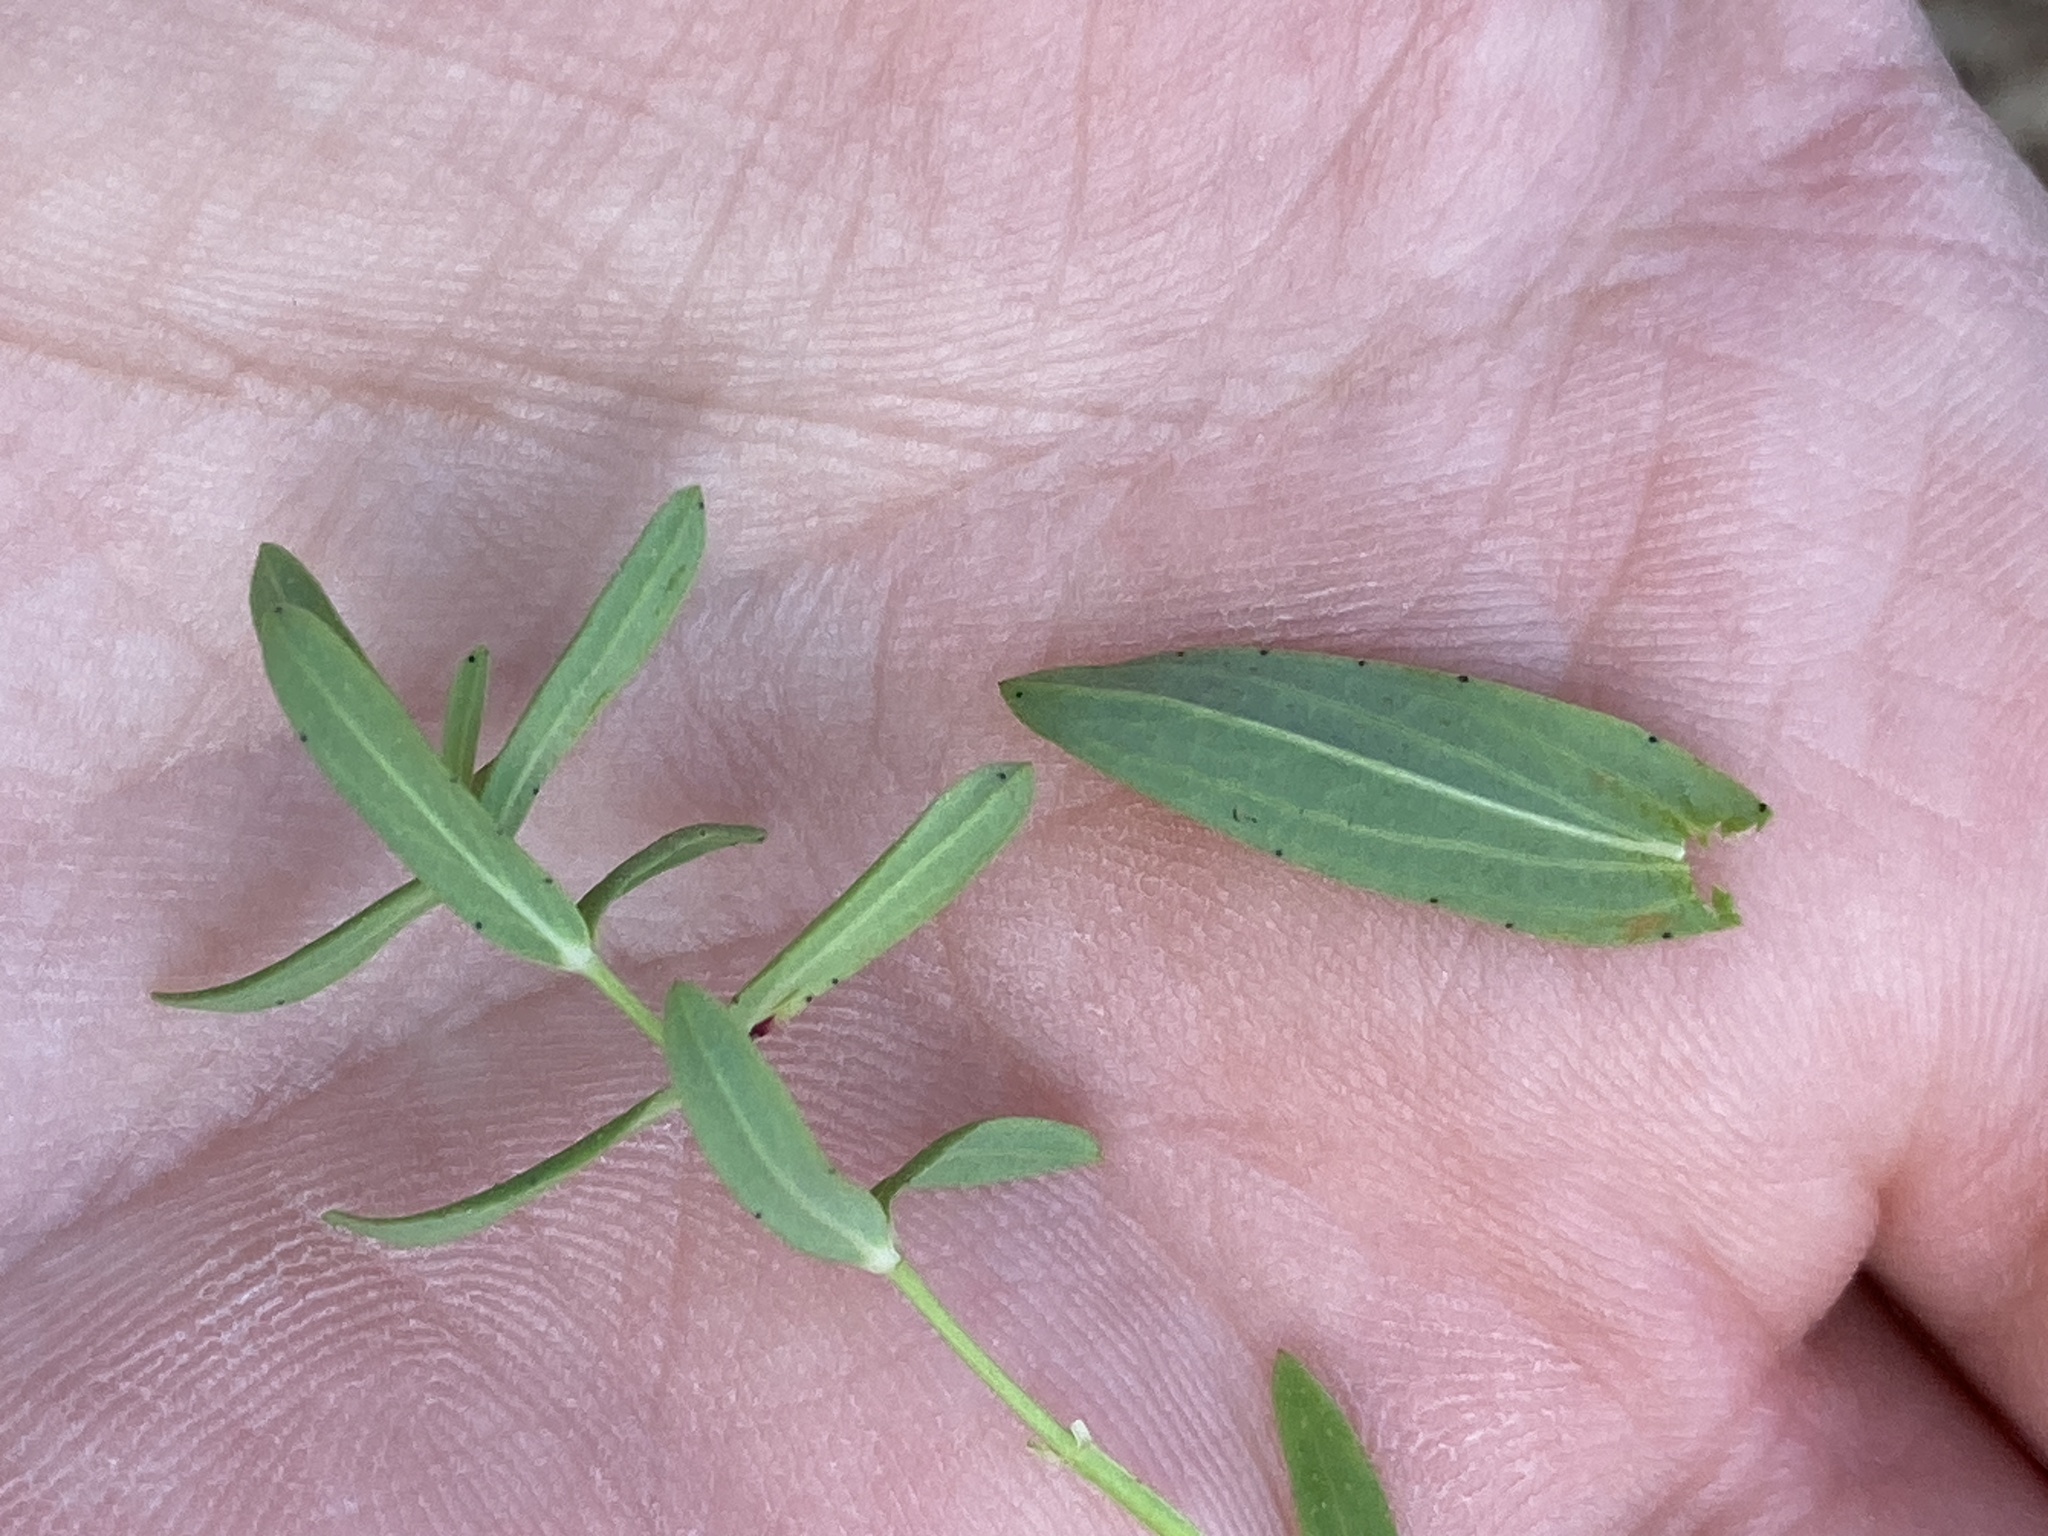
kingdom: Plantae
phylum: Tracheophyta
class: Magnoliopsida
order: Malpighiales
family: Hypericaceae
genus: Hypericum
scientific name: Hypericum perforatum
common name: Common st. johnswort
